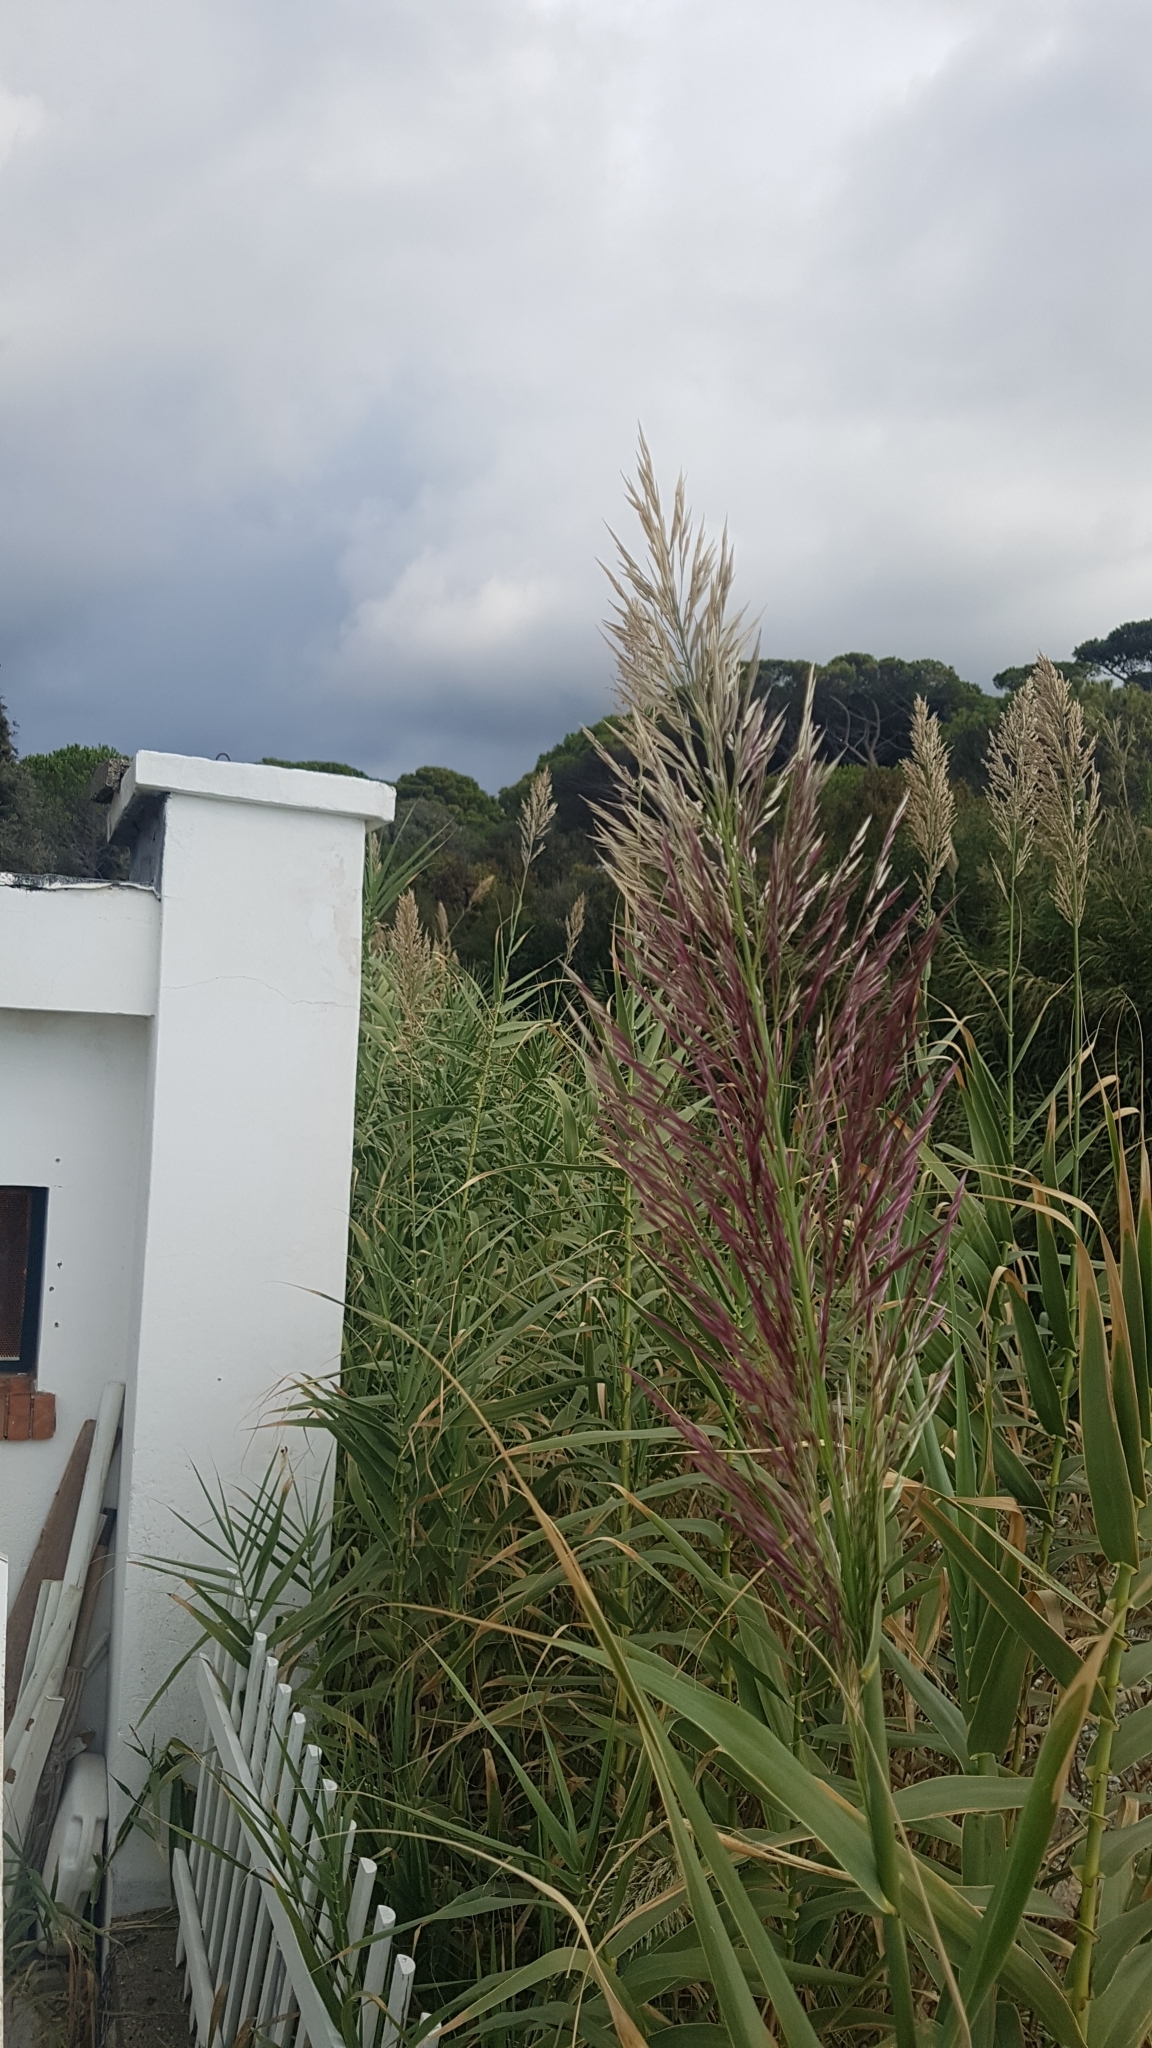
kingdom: Plantae
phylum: Tracheophyta
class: Liliopsida
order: Poales
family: Poaceae
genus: Arundo
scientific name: Arundo donax
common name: Giant reed
